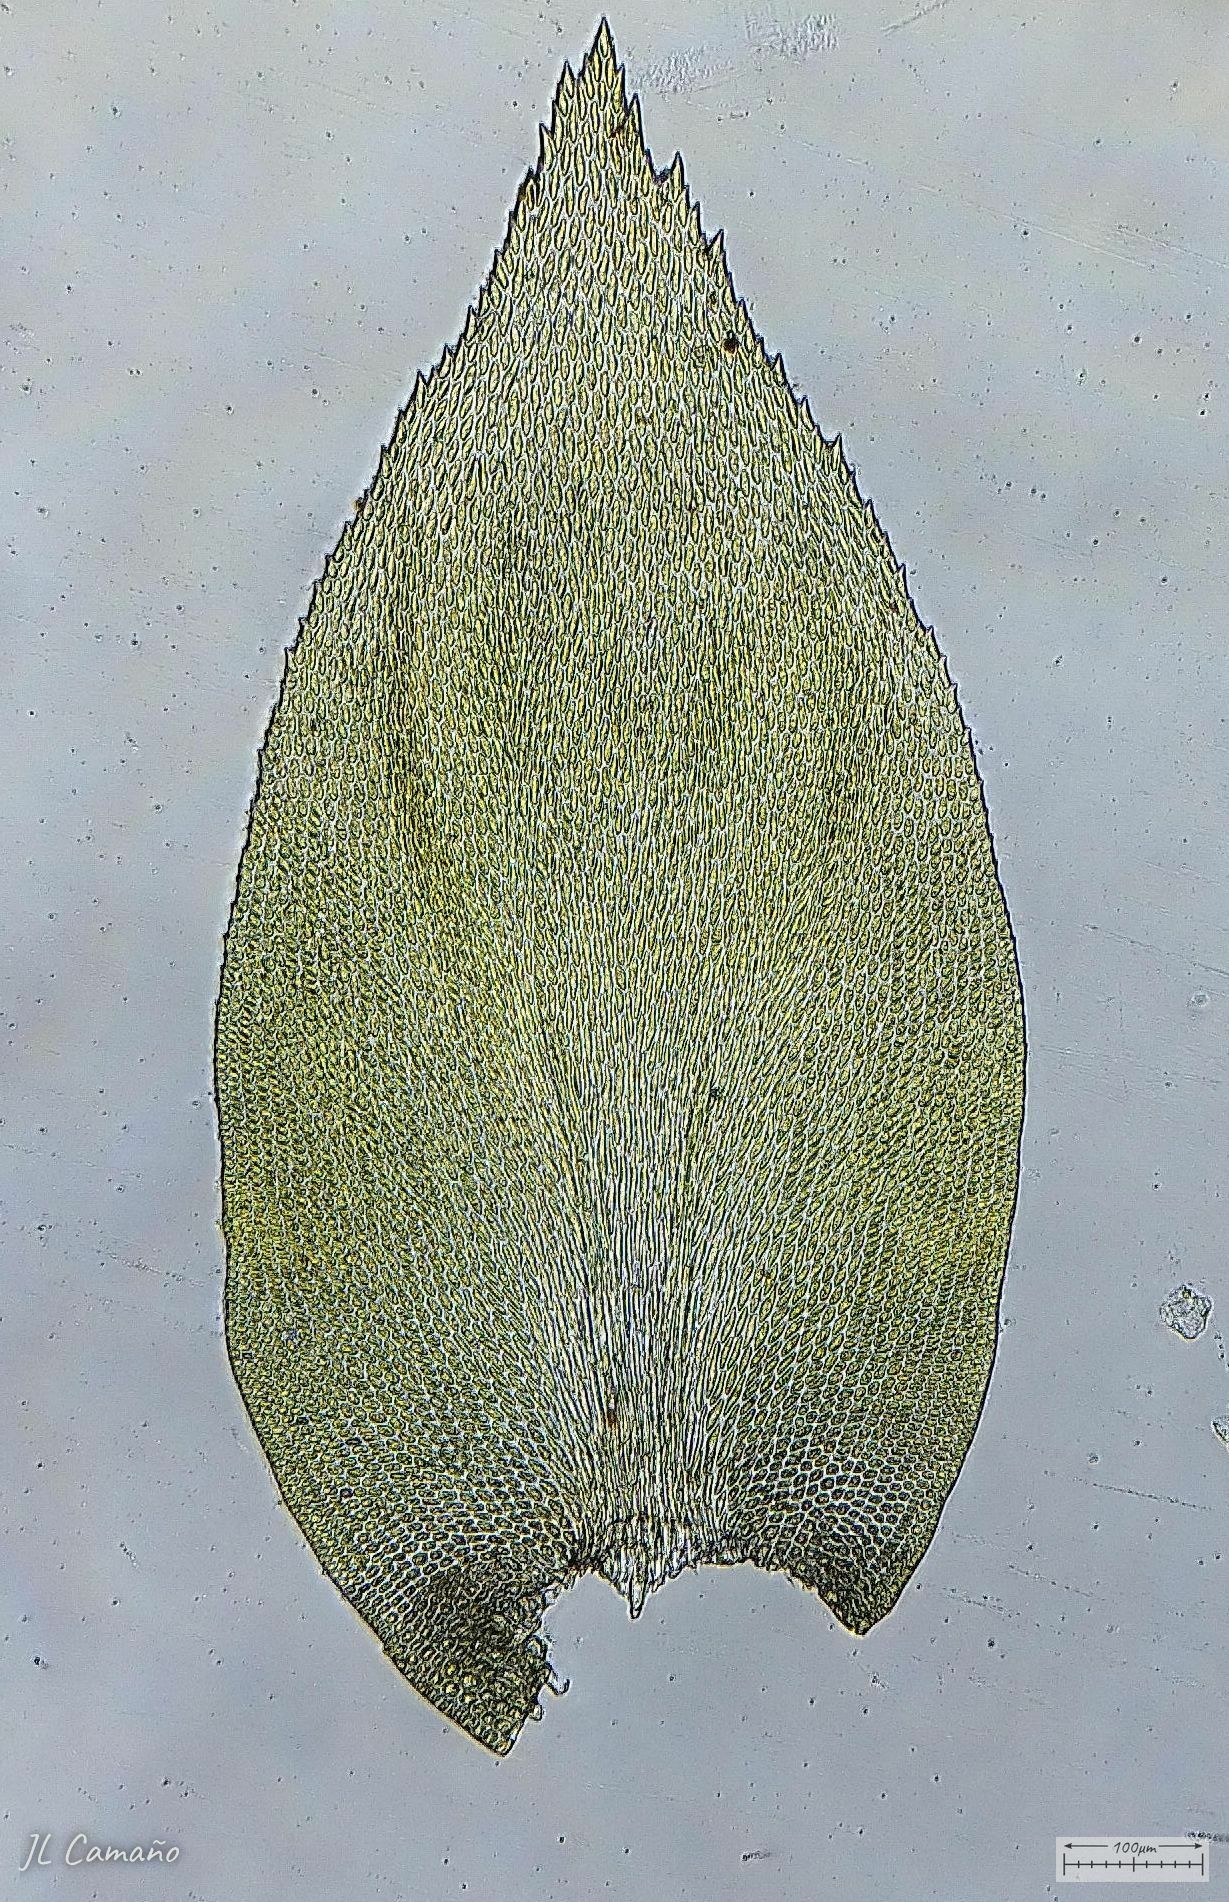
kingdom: Plantae
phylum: Bryophyta
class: Bryopsida
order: Hypnales
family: Lembophyllaceae
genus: Nogopterium
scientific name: Nogopterium gracile
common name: Bird's-foot wing-moss
